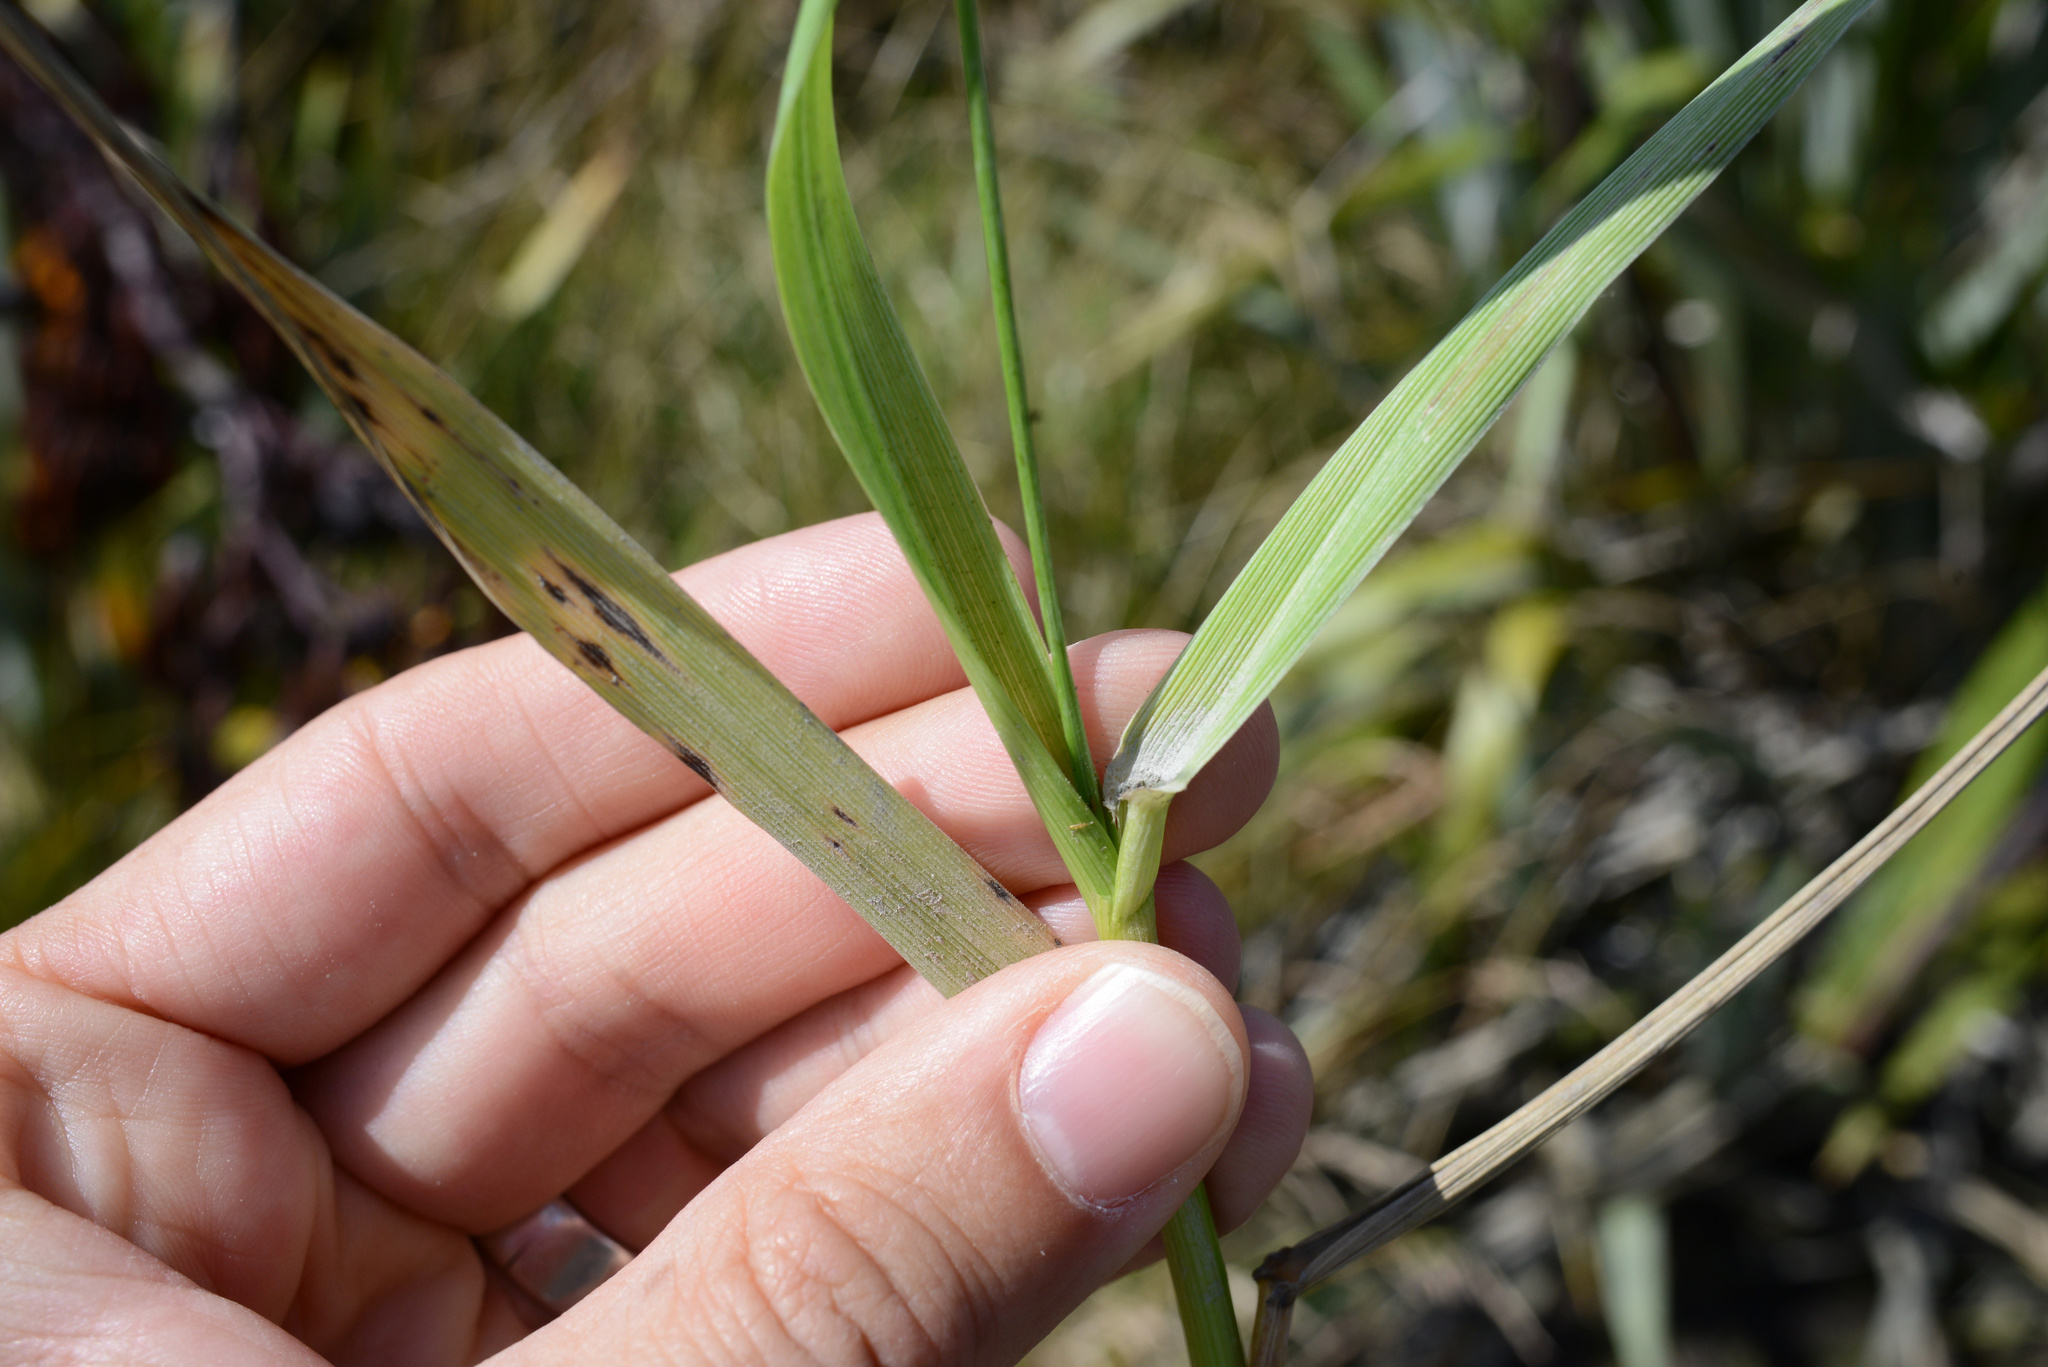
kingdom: Plantae
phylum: Tracheophyta
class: Liliopsida
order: Poales
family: Poaceae
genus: Lolium
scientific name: Lolium arundinaceum
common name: Reed fescue
